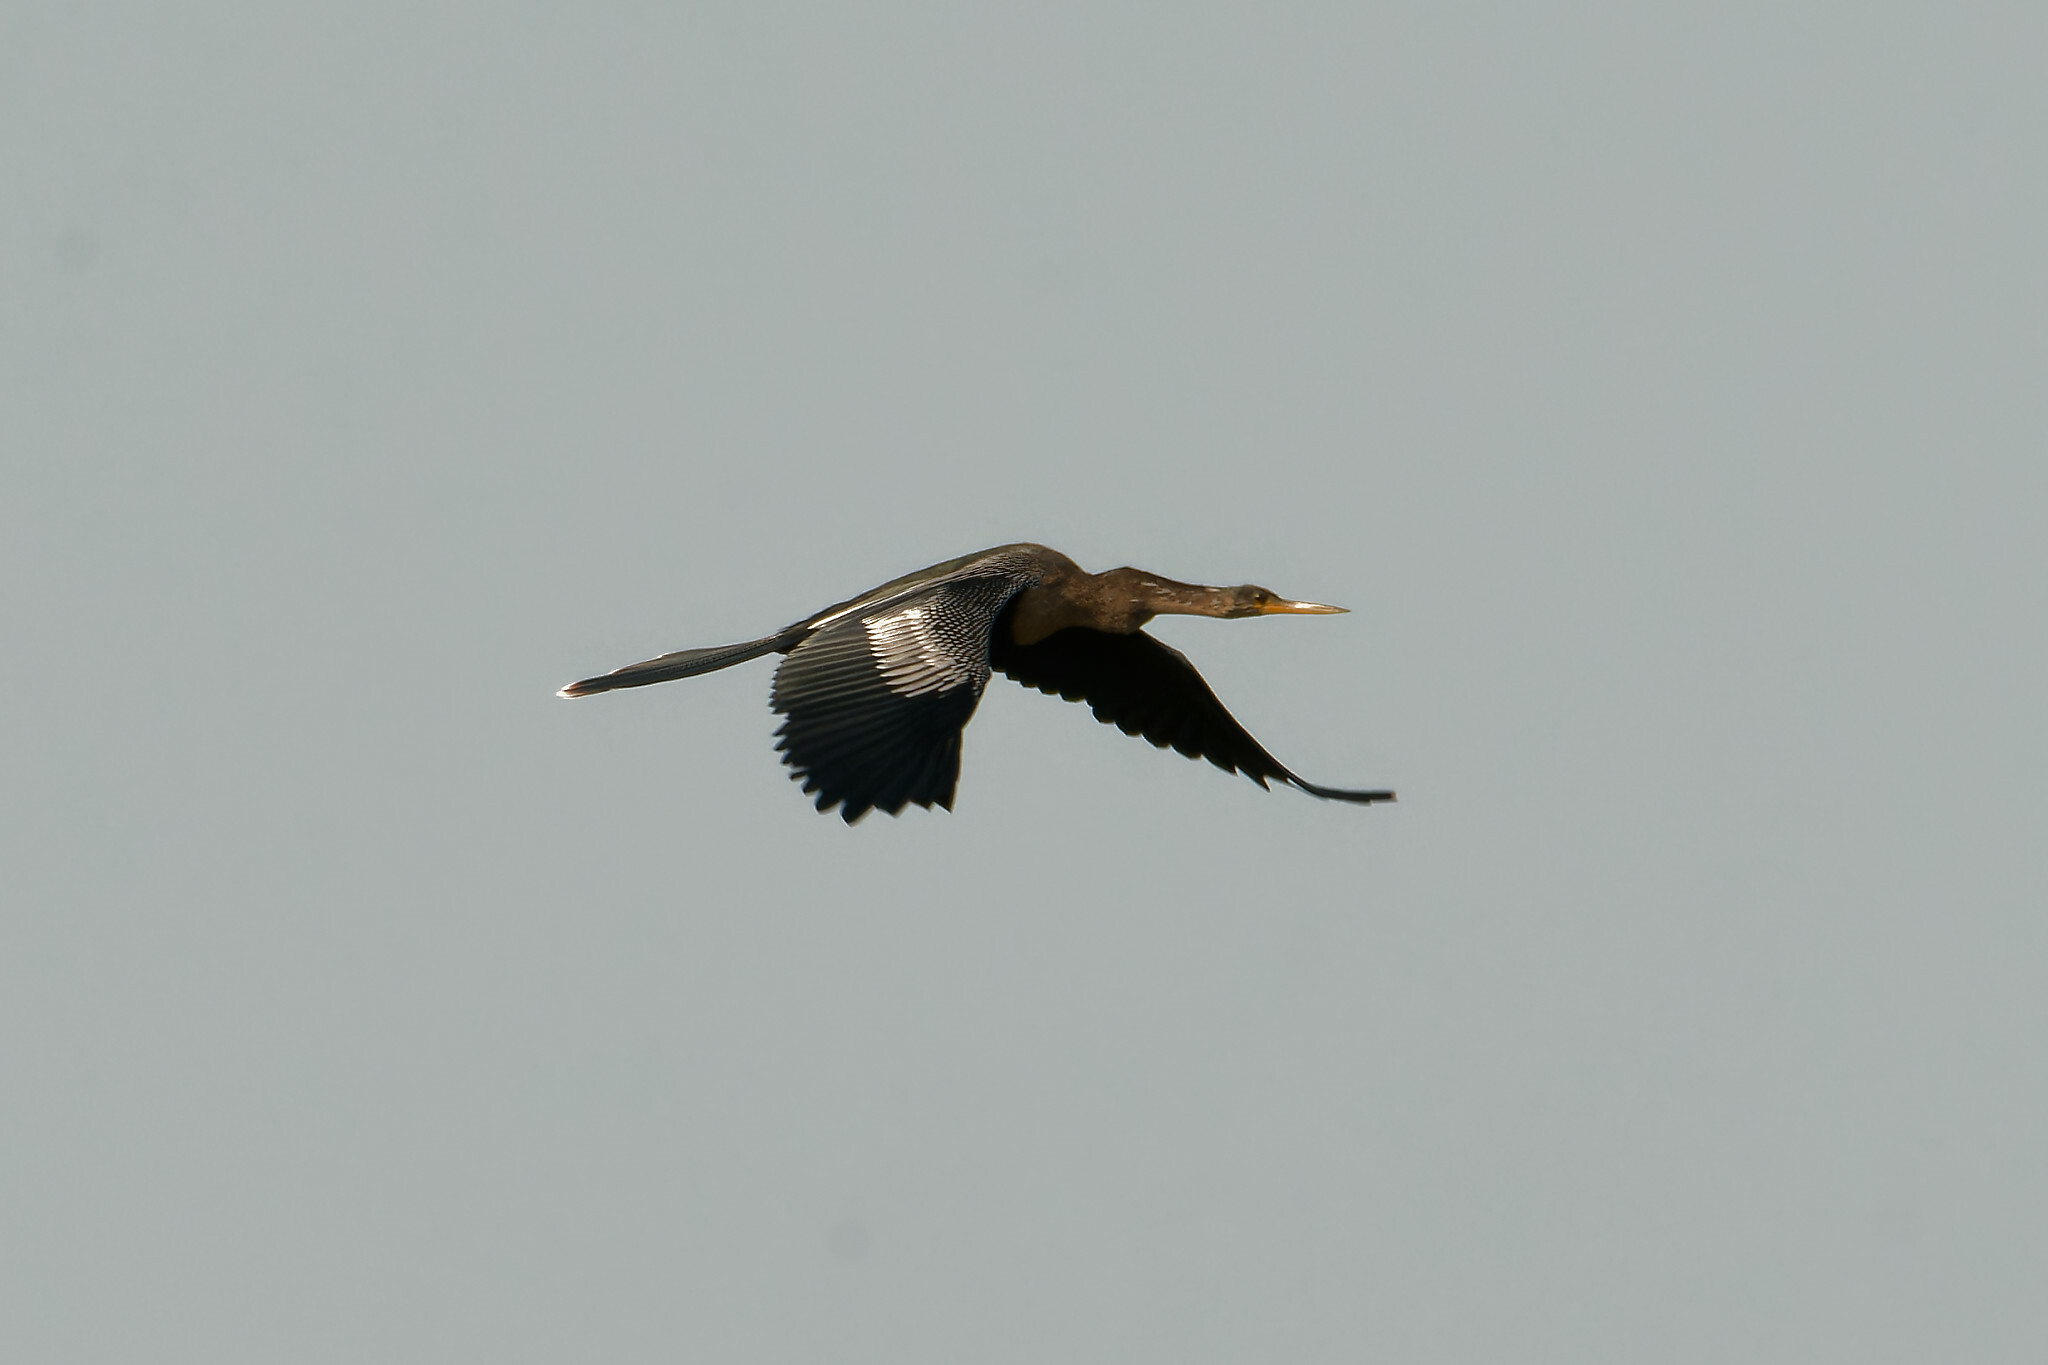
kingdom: Animalia
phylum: Chordata
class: Aves
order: Suliformes
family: Anhingidae
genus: Anhinga
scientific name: Anhinga anhinga
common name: Anhinga
